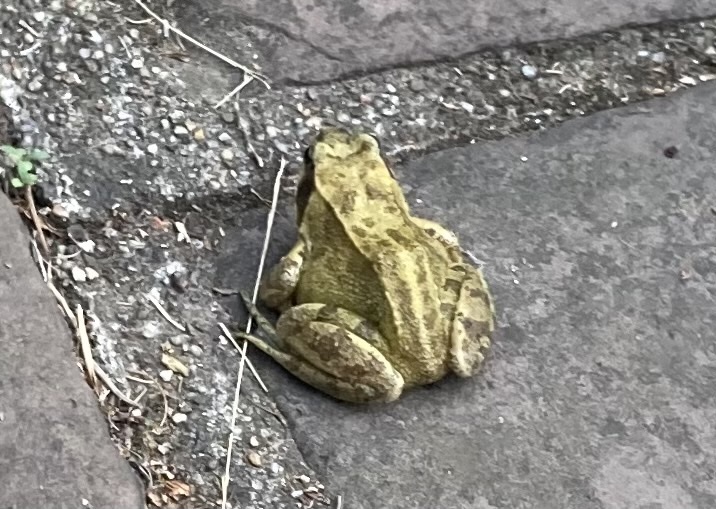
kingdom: Animalia
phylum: Chordata
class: Amphibia
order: Anura
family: Ranidae
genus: Rana
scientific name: Rana temporaria
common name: Common frog
